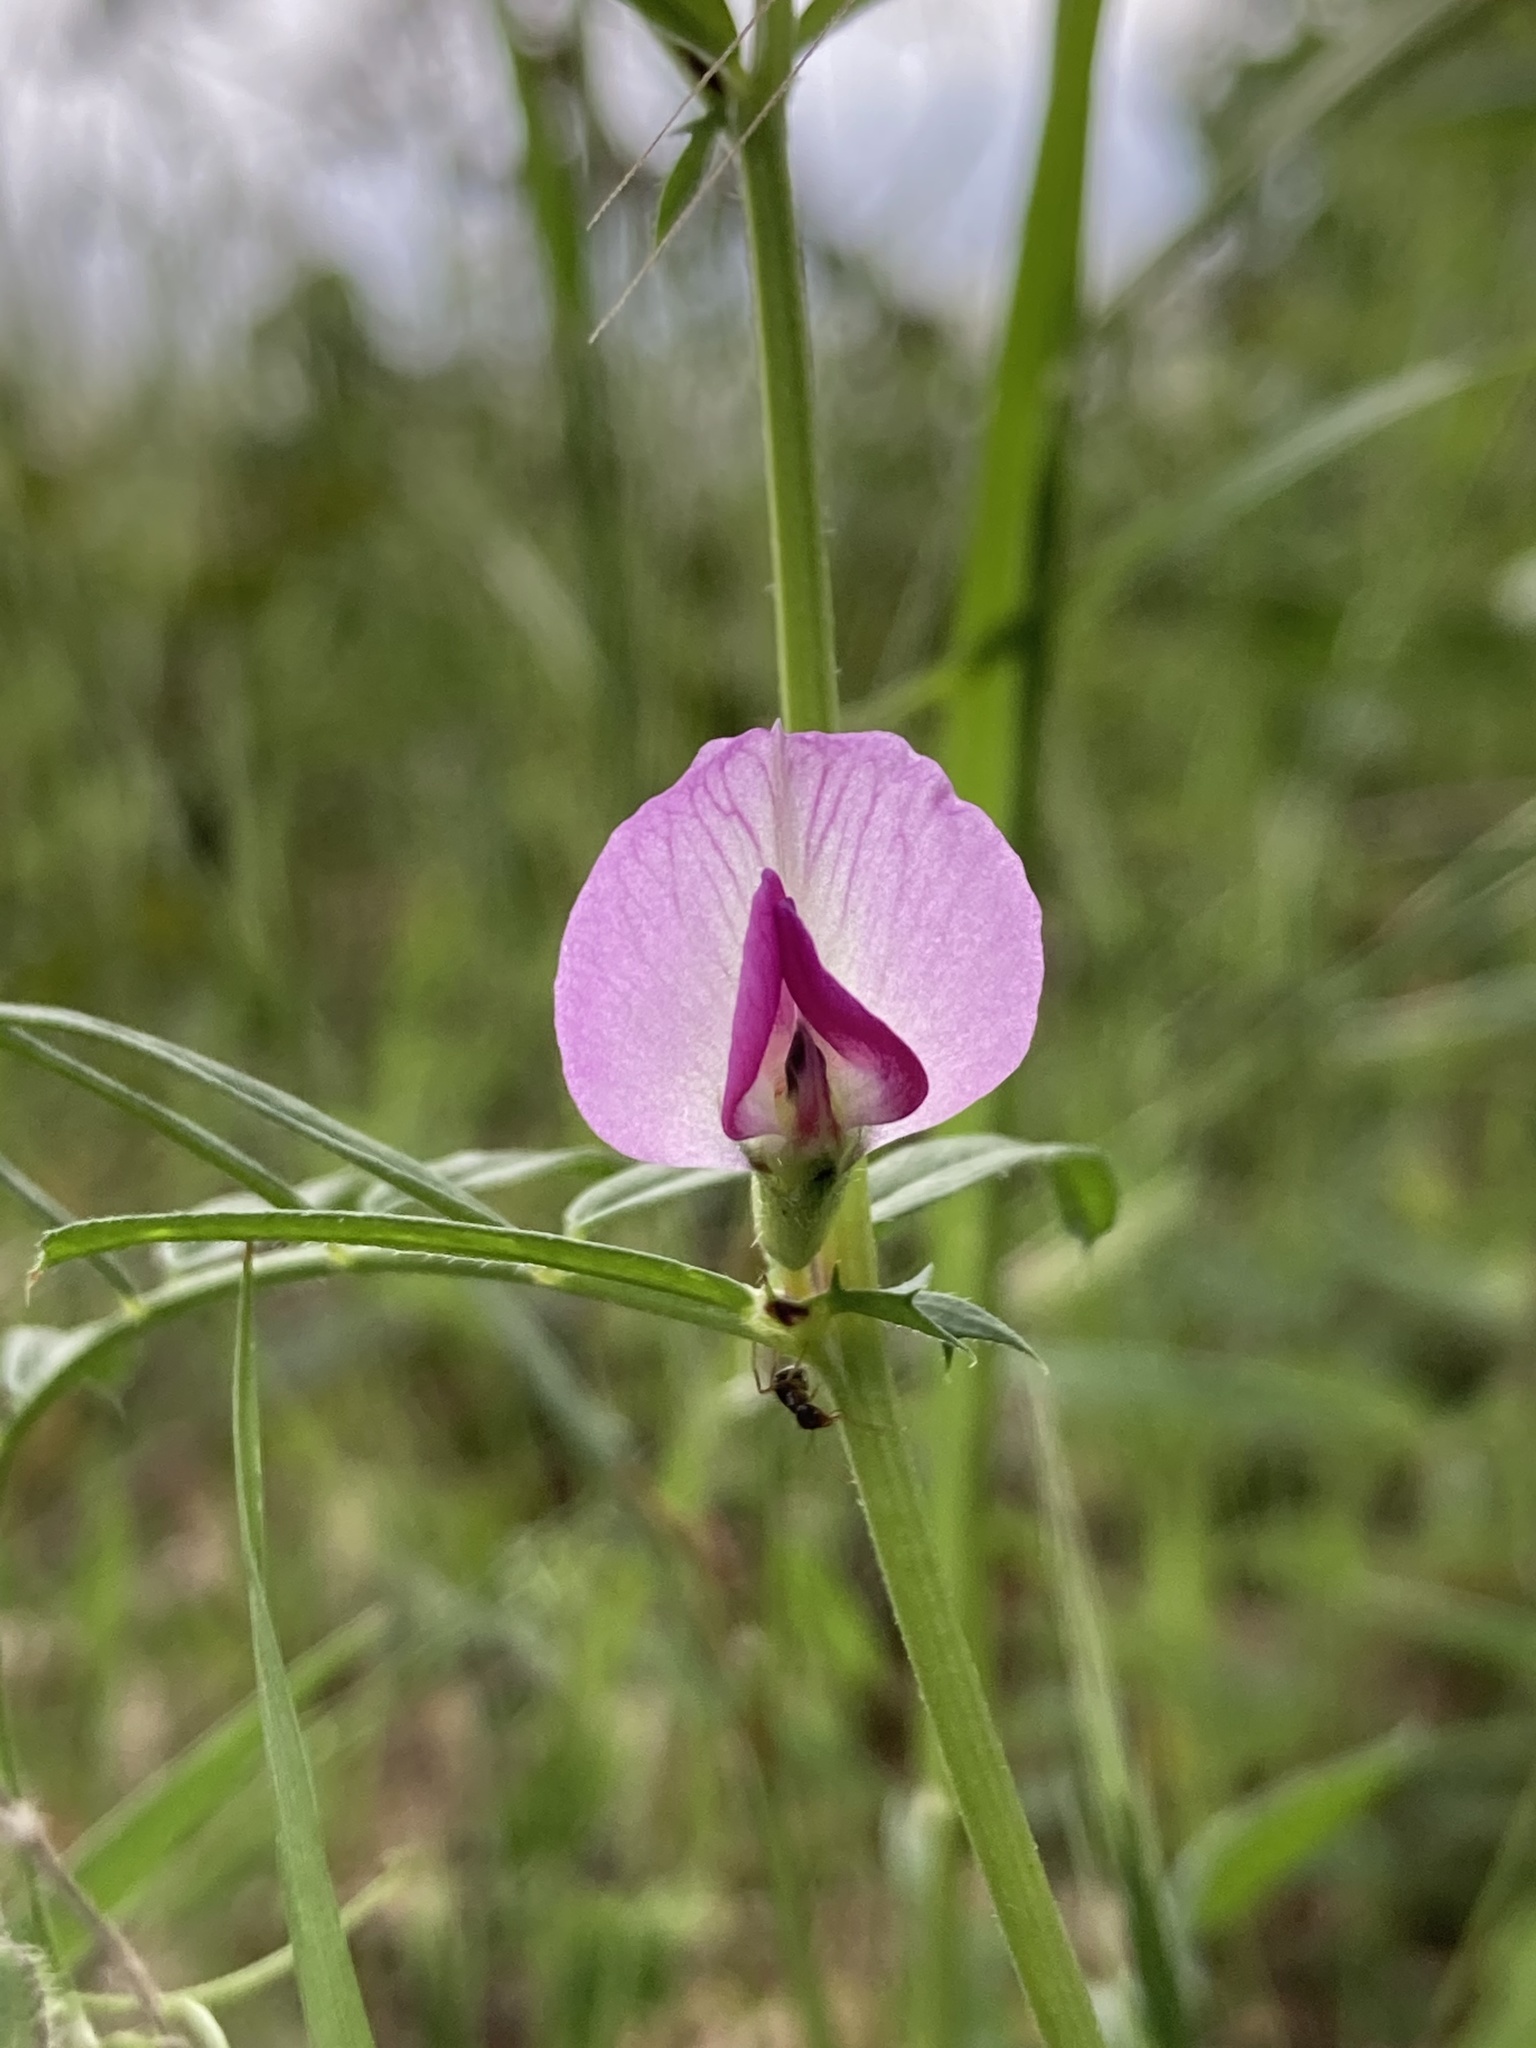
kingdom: Plantae
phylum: Tracheophyta
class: Magnoliopsida
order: Fabales
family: Fabaceae
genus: Vicia
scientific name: Vicia sativa
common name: Garden vetch
